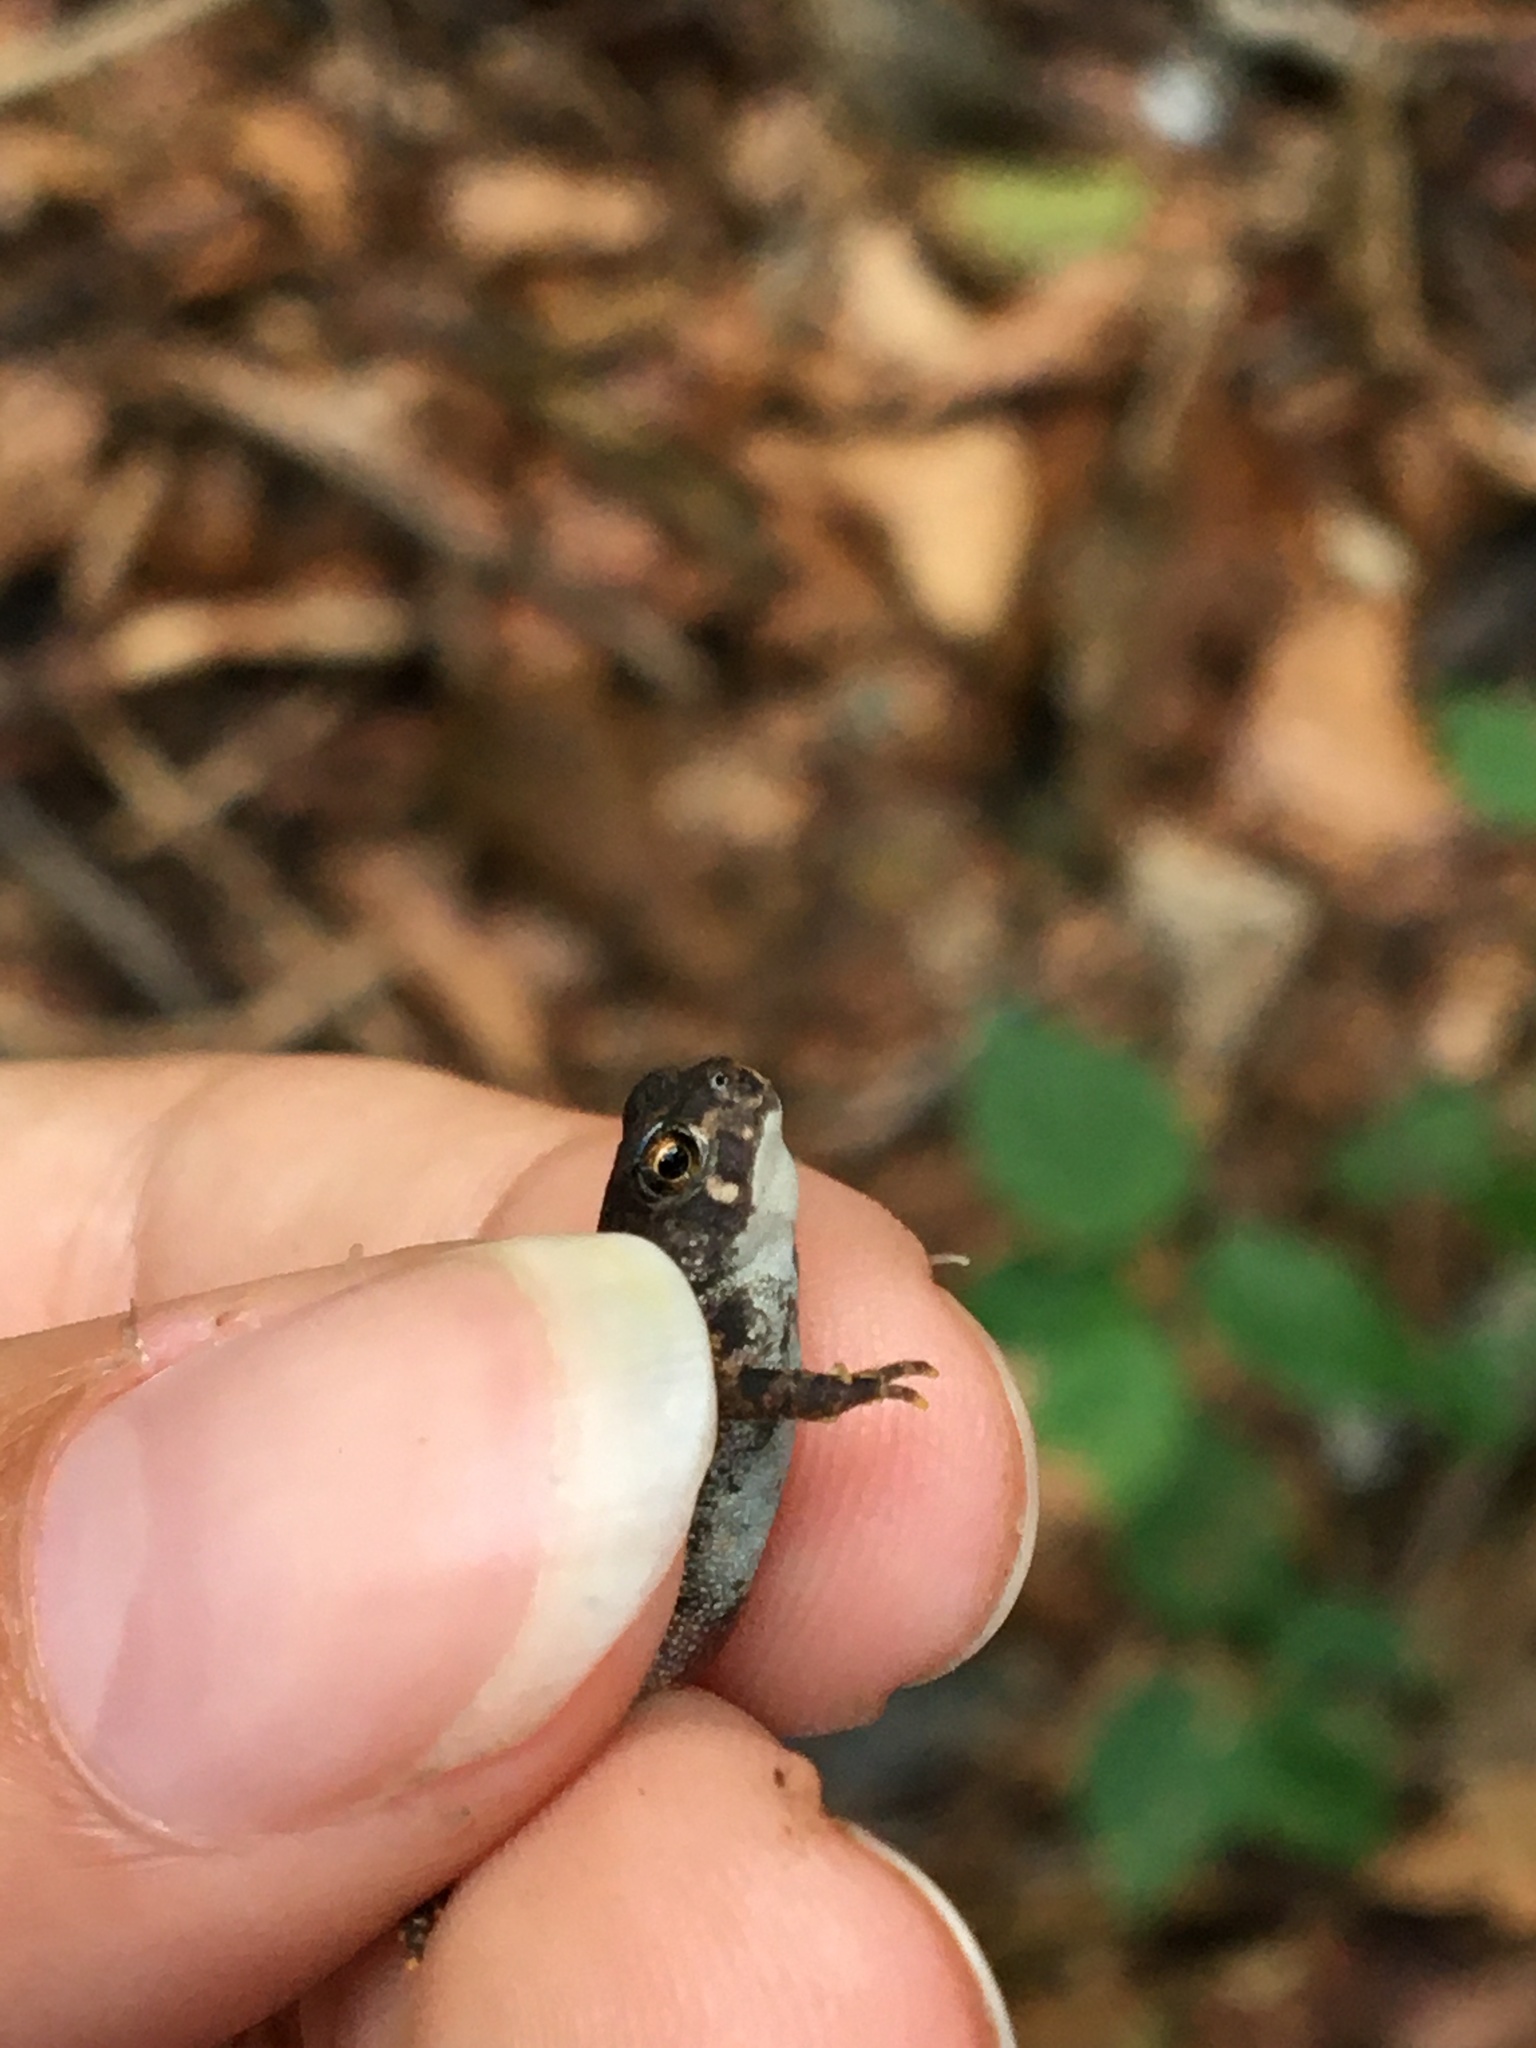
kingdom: Animalia
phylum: Chordata
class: Amphibia
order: Anura
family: Bufonidae
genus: Anaxyrus
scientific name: Anaxyrus americanus
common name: American toad
